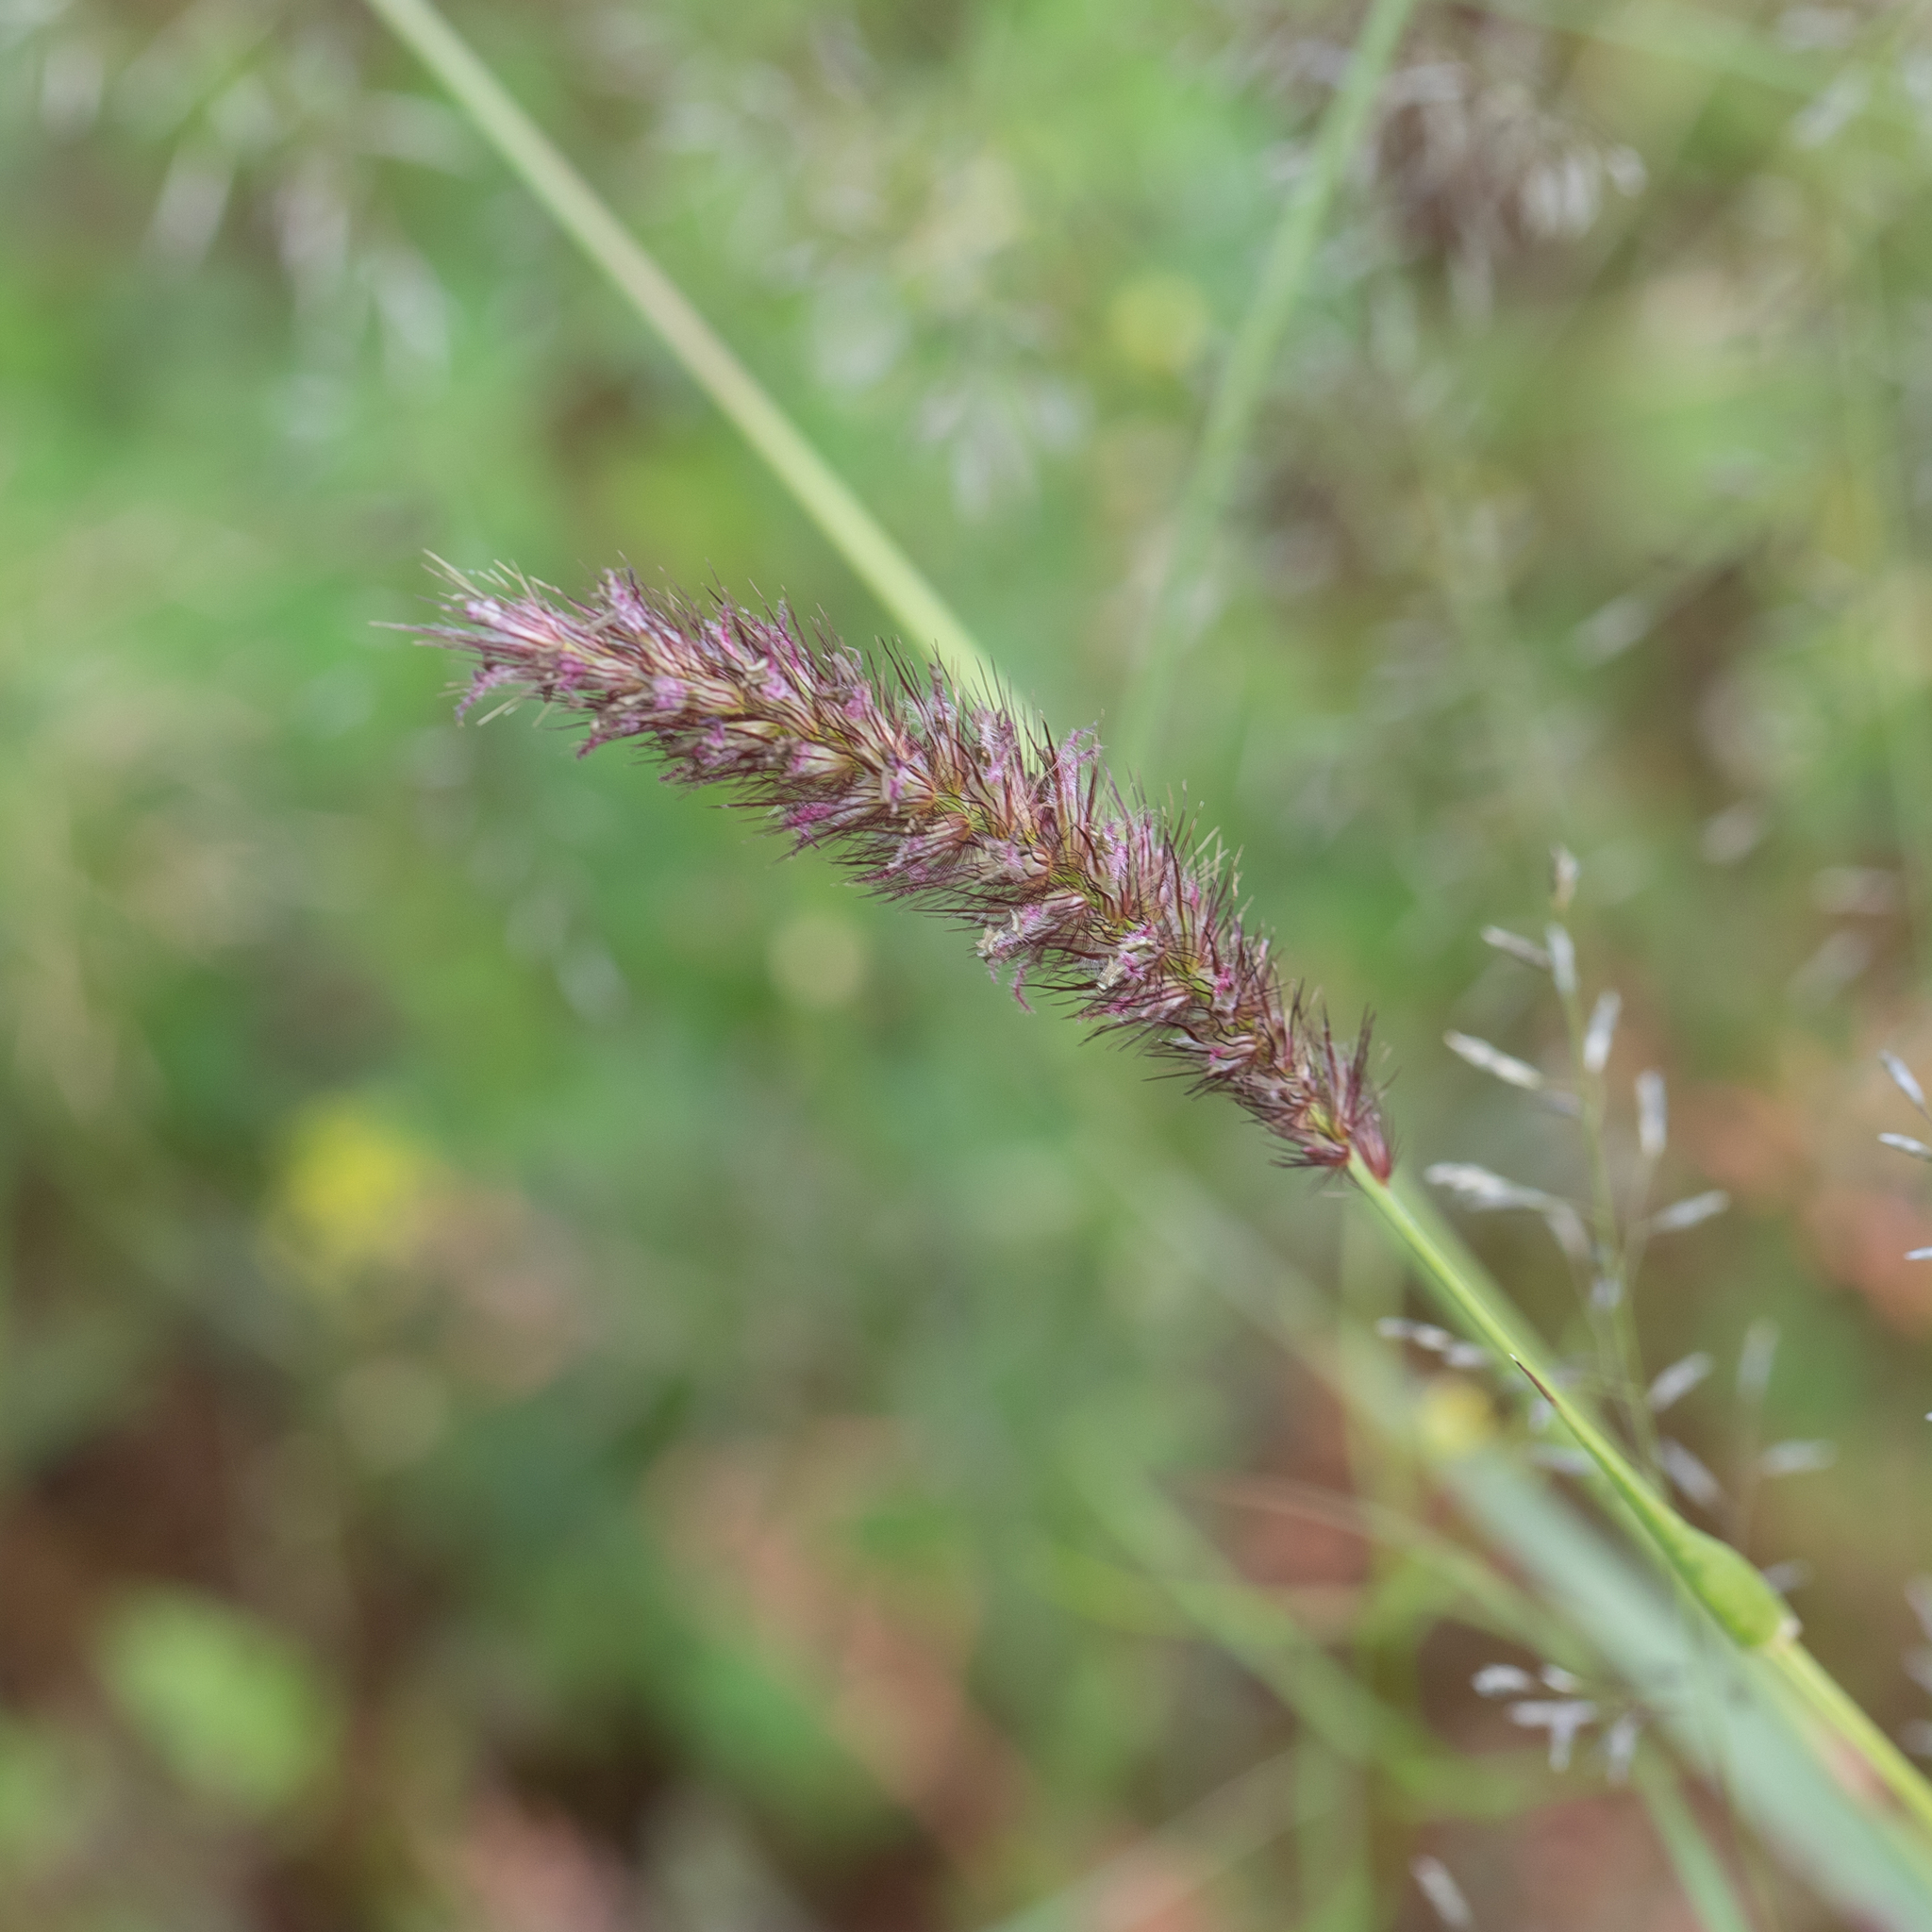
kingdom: Plantae
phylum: Tracheophyta
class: Liliopsida
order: Poales
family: Poaceae
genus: Cenchrus
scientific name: Cenchrus ciliaris
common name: Buffelgrass
